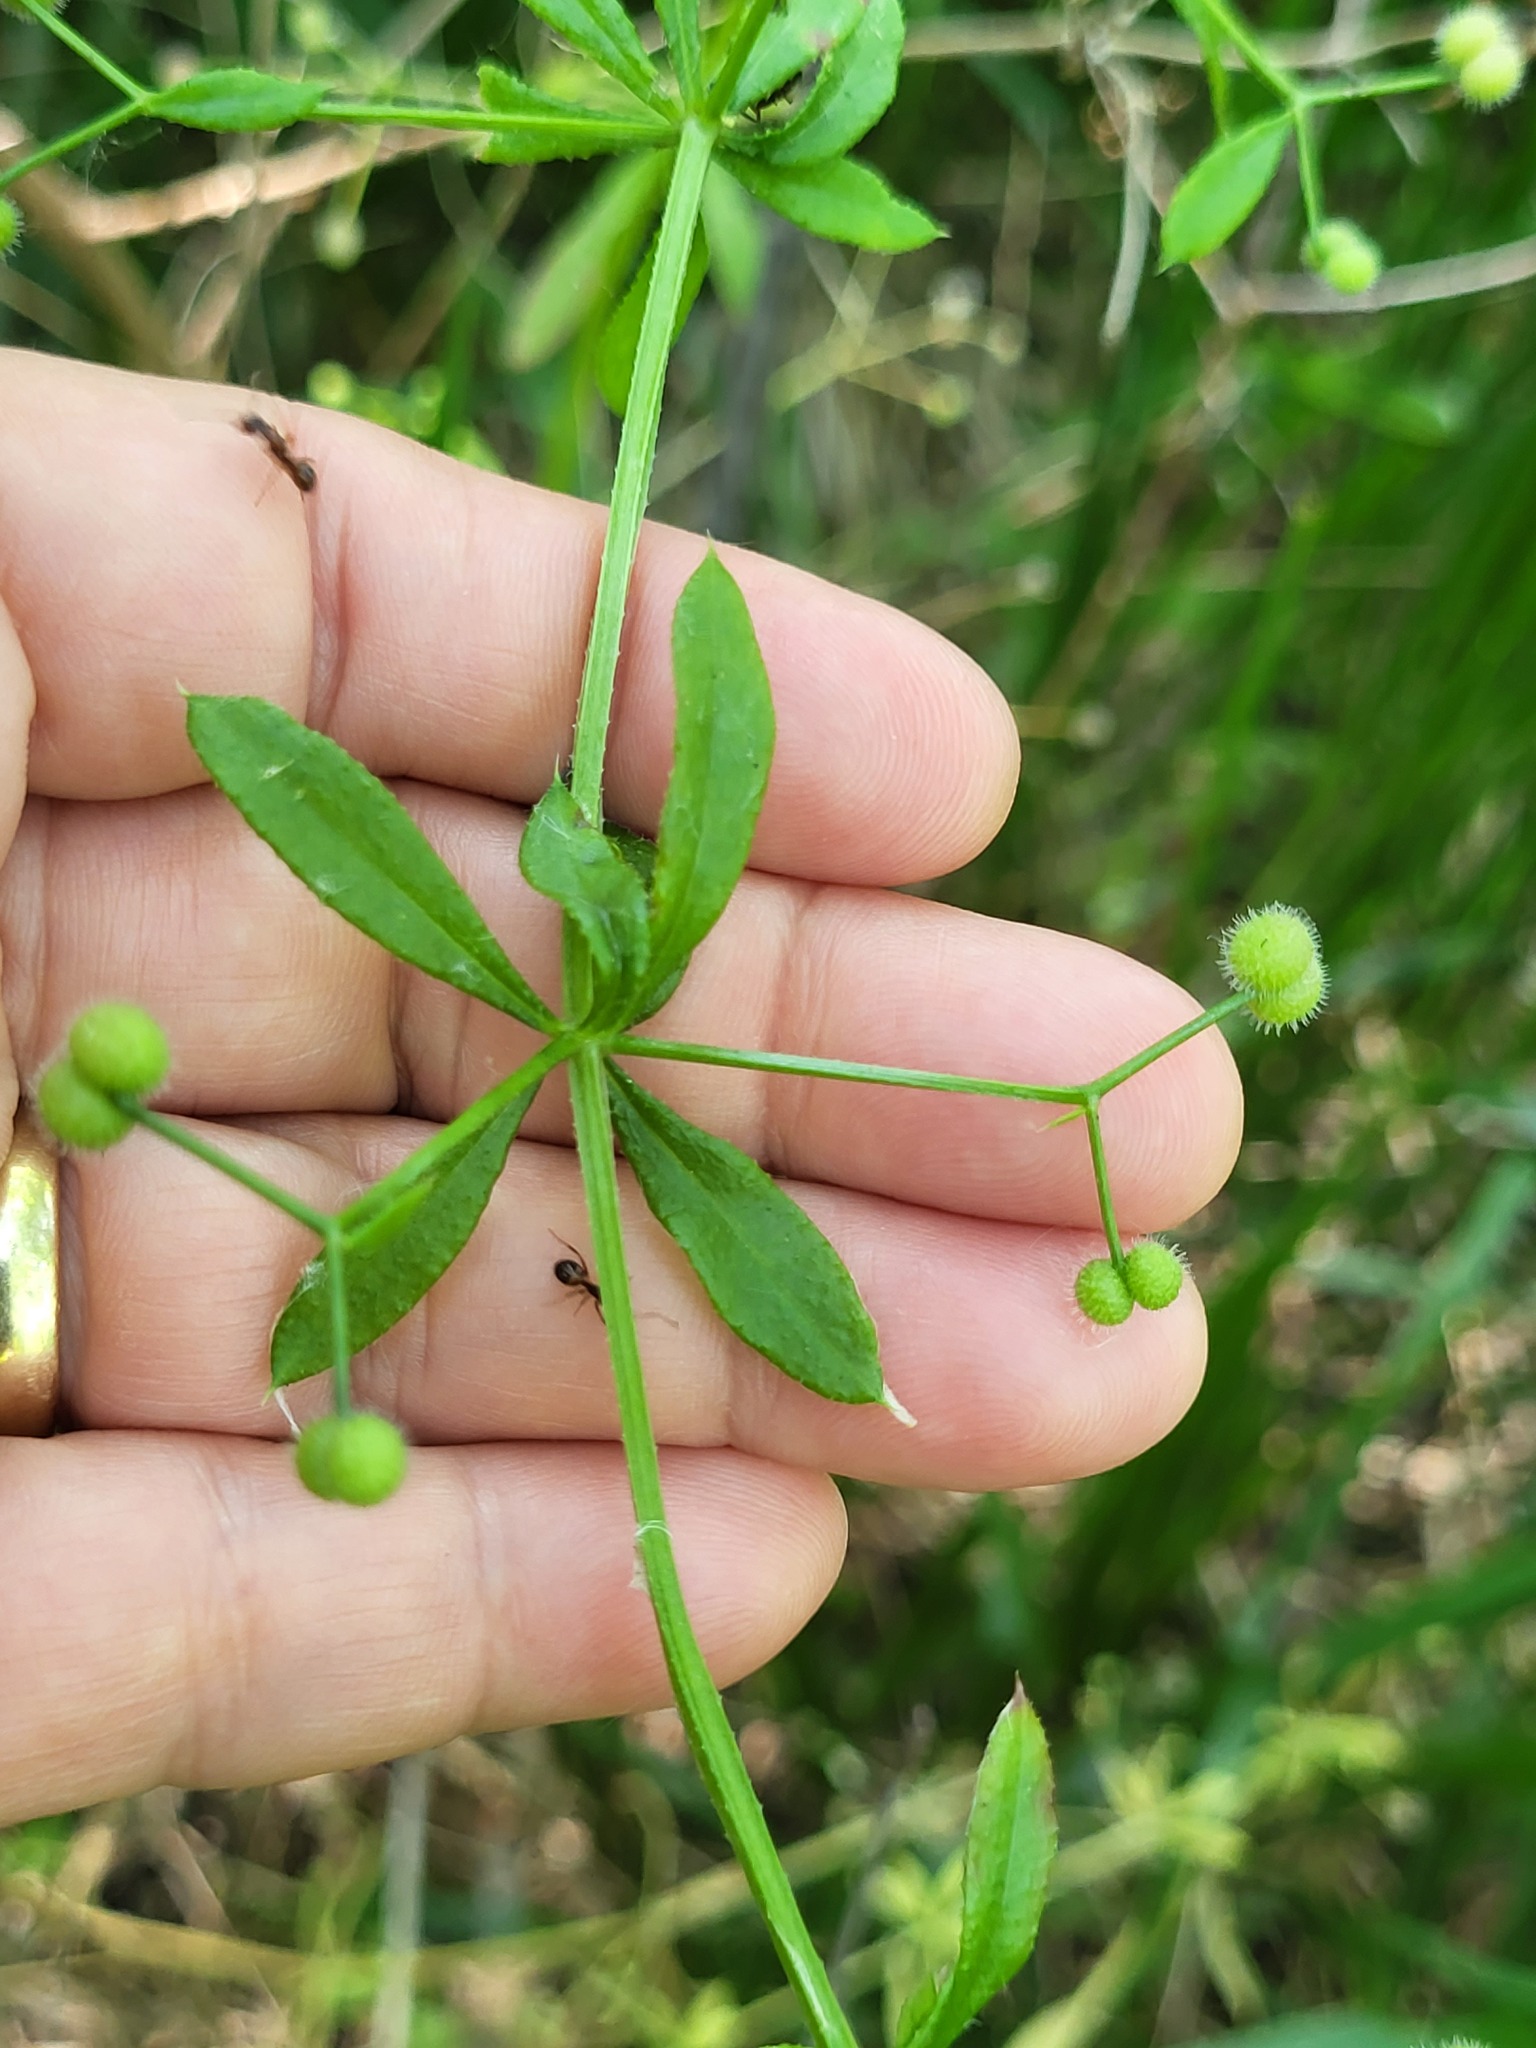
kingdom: Plantae
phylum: Tracheophyta
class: Magnoliopsida
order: Gentianales
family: Rubiaceae
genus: Galium
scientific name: Galium aparine
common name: Cleavers
